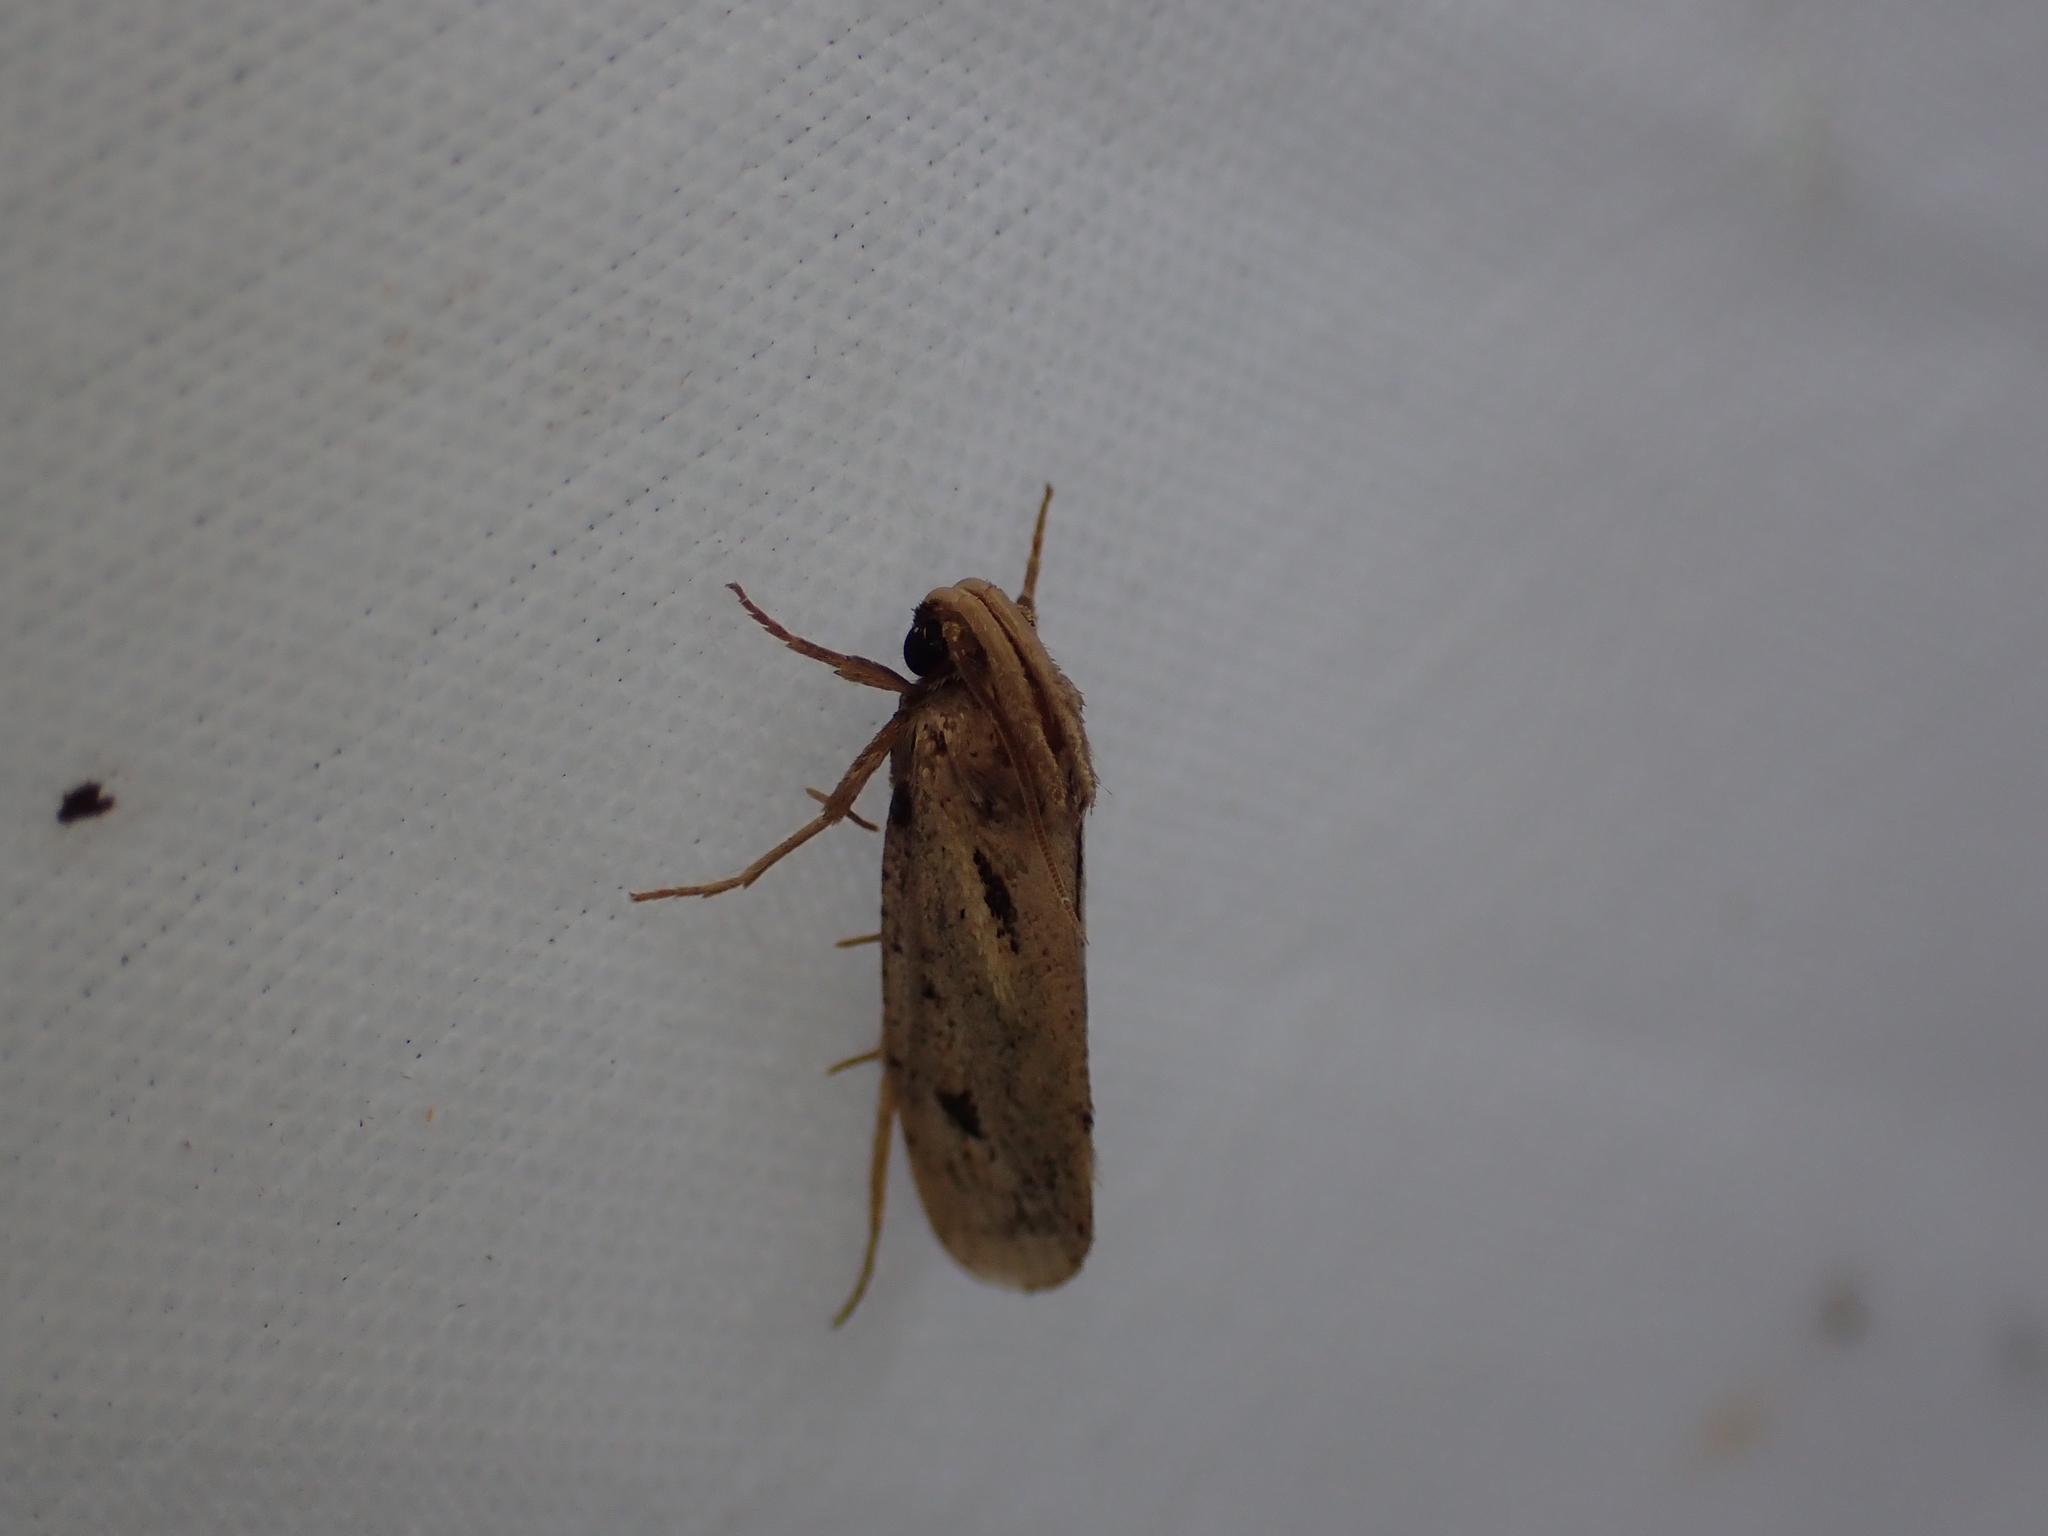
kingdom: Animalia
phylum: Arthropoda
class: Insecta
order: Lepidoptera
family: Tineidae
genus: Acrolophus
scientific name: Acrolophus popeanella
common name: Clemens' grass tubeworm moth
